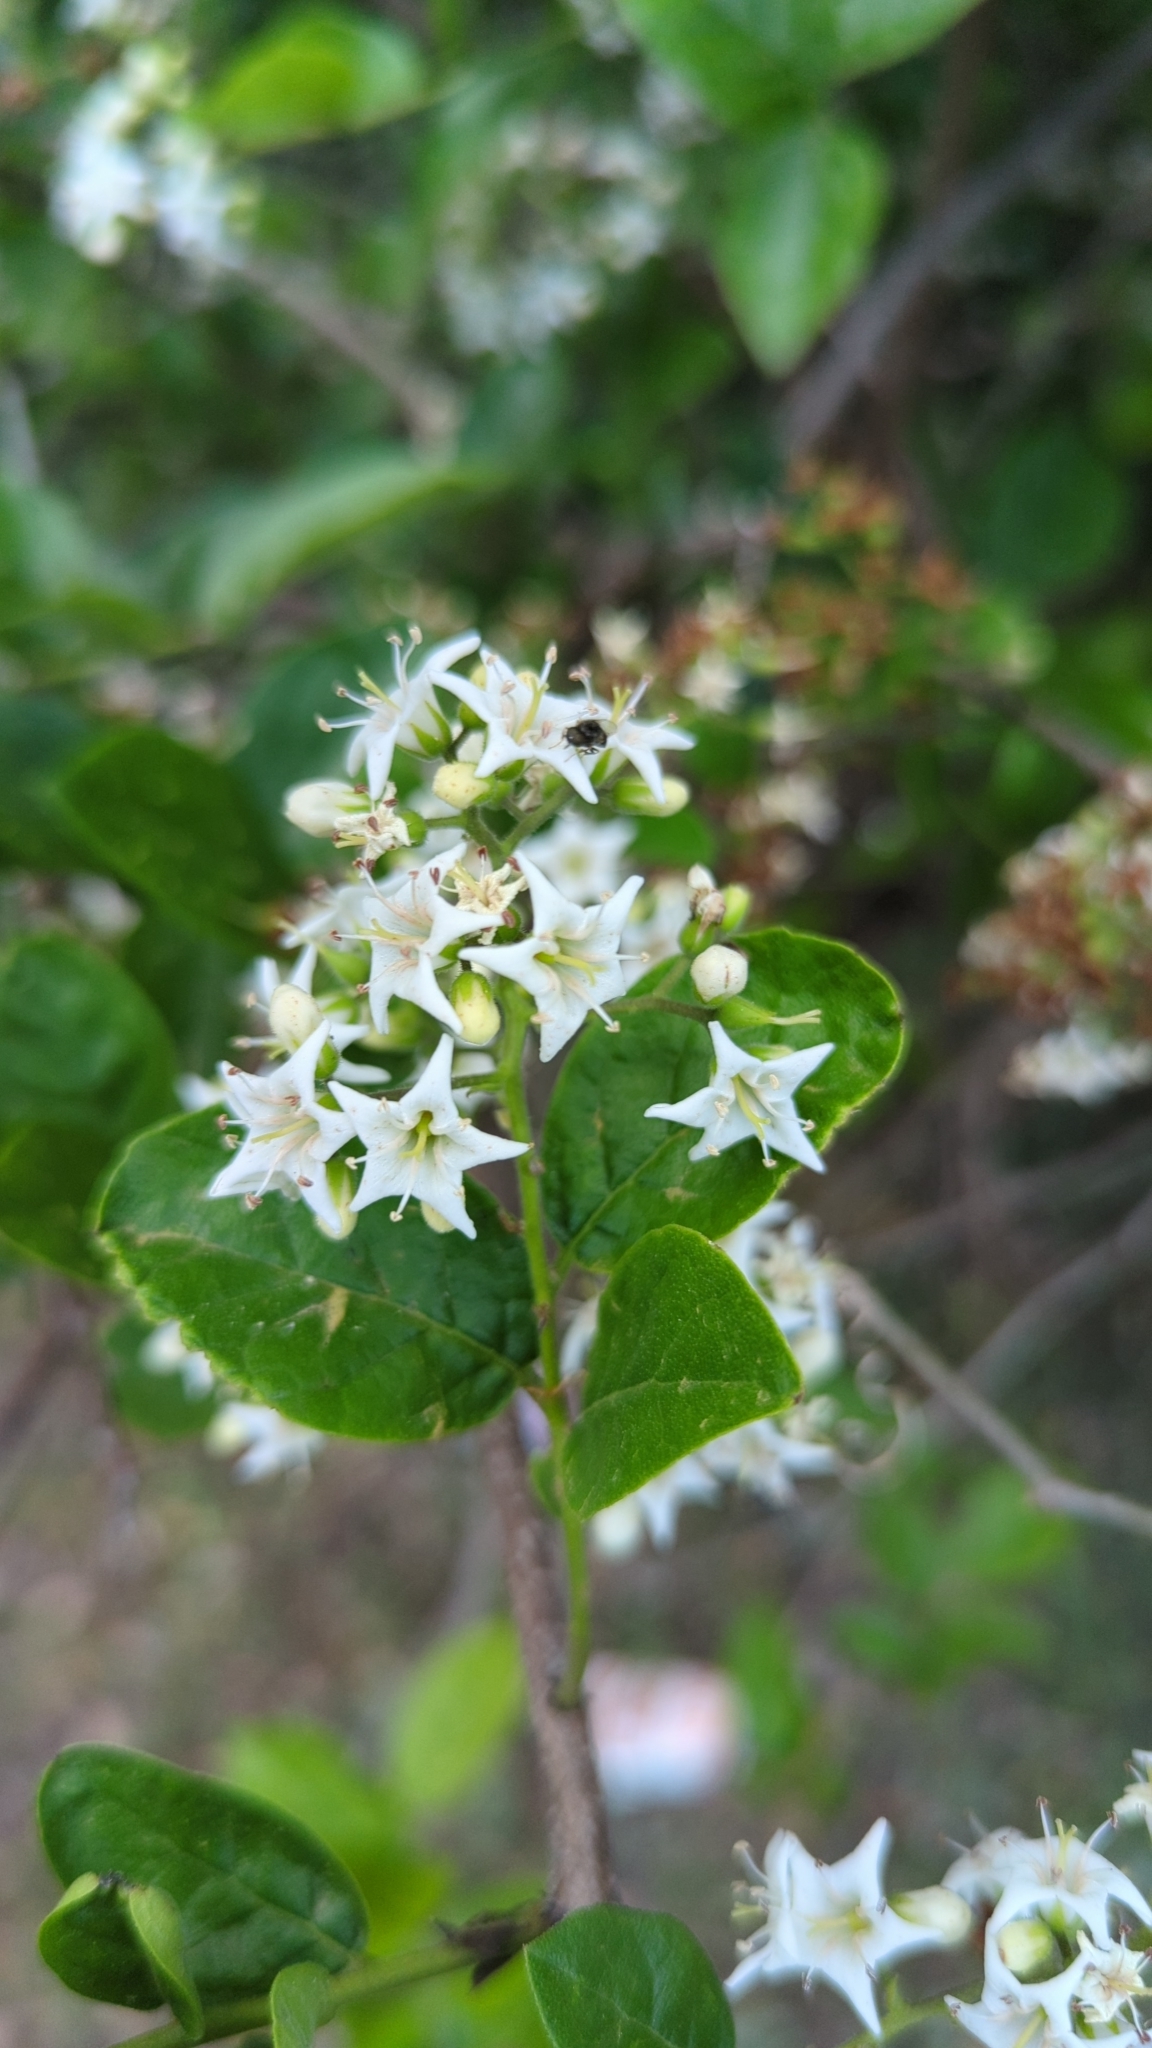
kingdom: Plantae
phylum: Tracheophyta
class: Magnoliopsida
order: Boraginales
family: Ehretiaceae
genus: Ehretia
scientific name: Ehretia anacua
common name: Sugarberry
